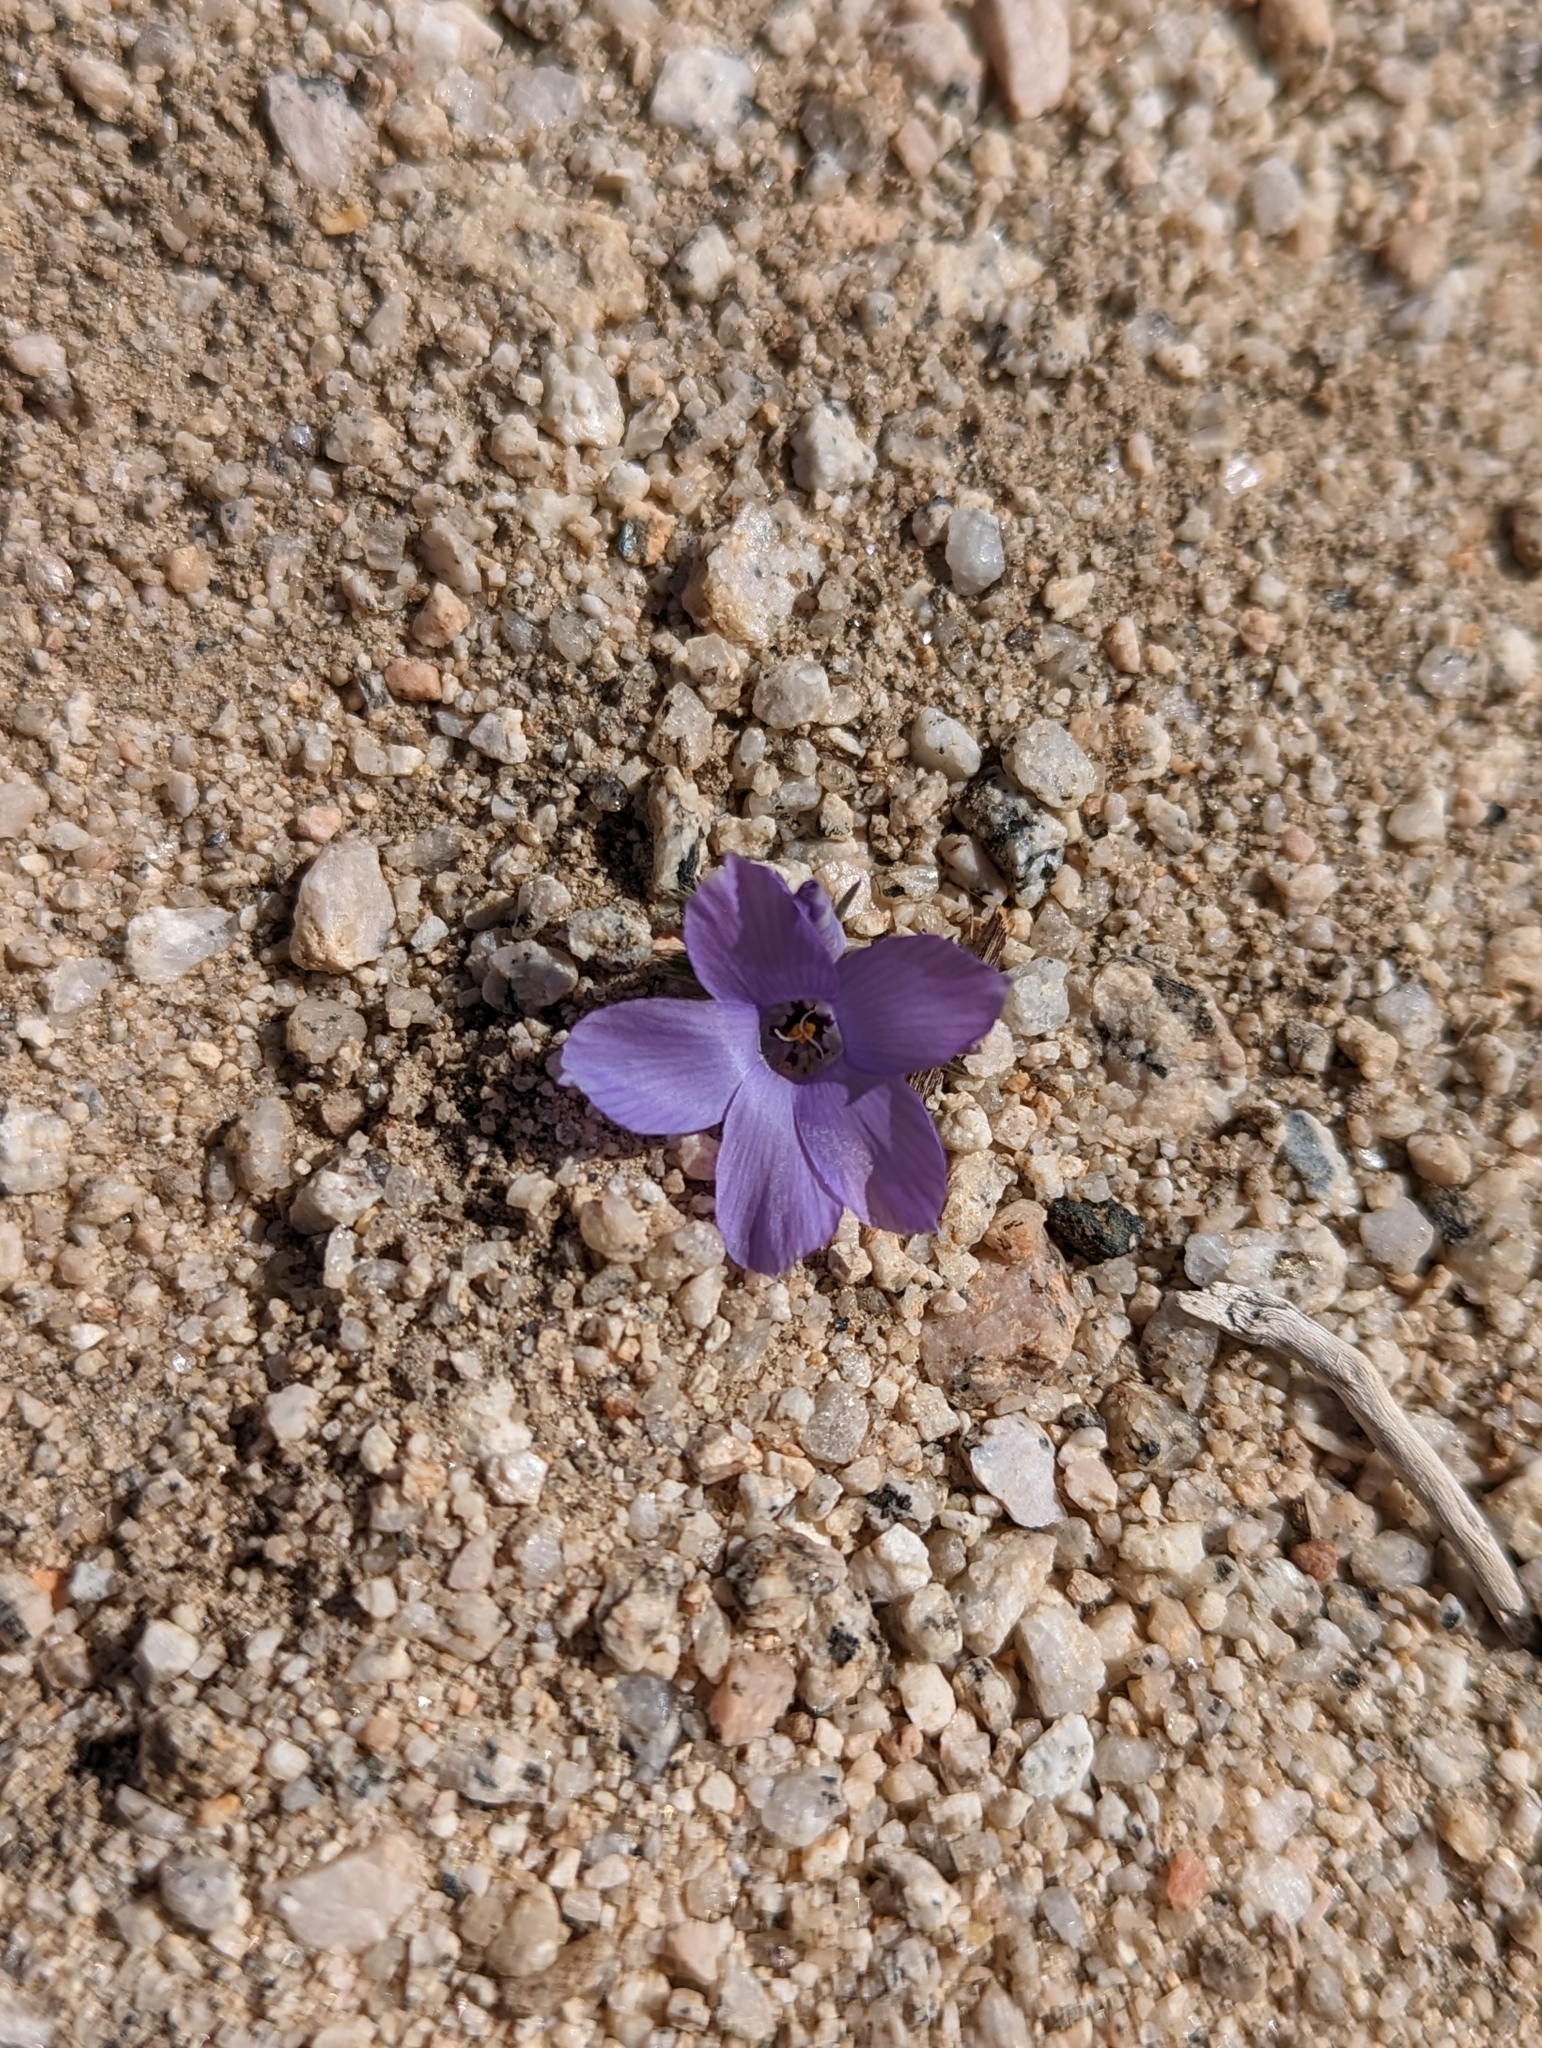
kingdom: Plantae
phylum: Tracheophyta
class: Magnoliopsida
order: Ericales
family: Polemoniaceae
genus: Linanthus
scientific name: Linanthus parryae
